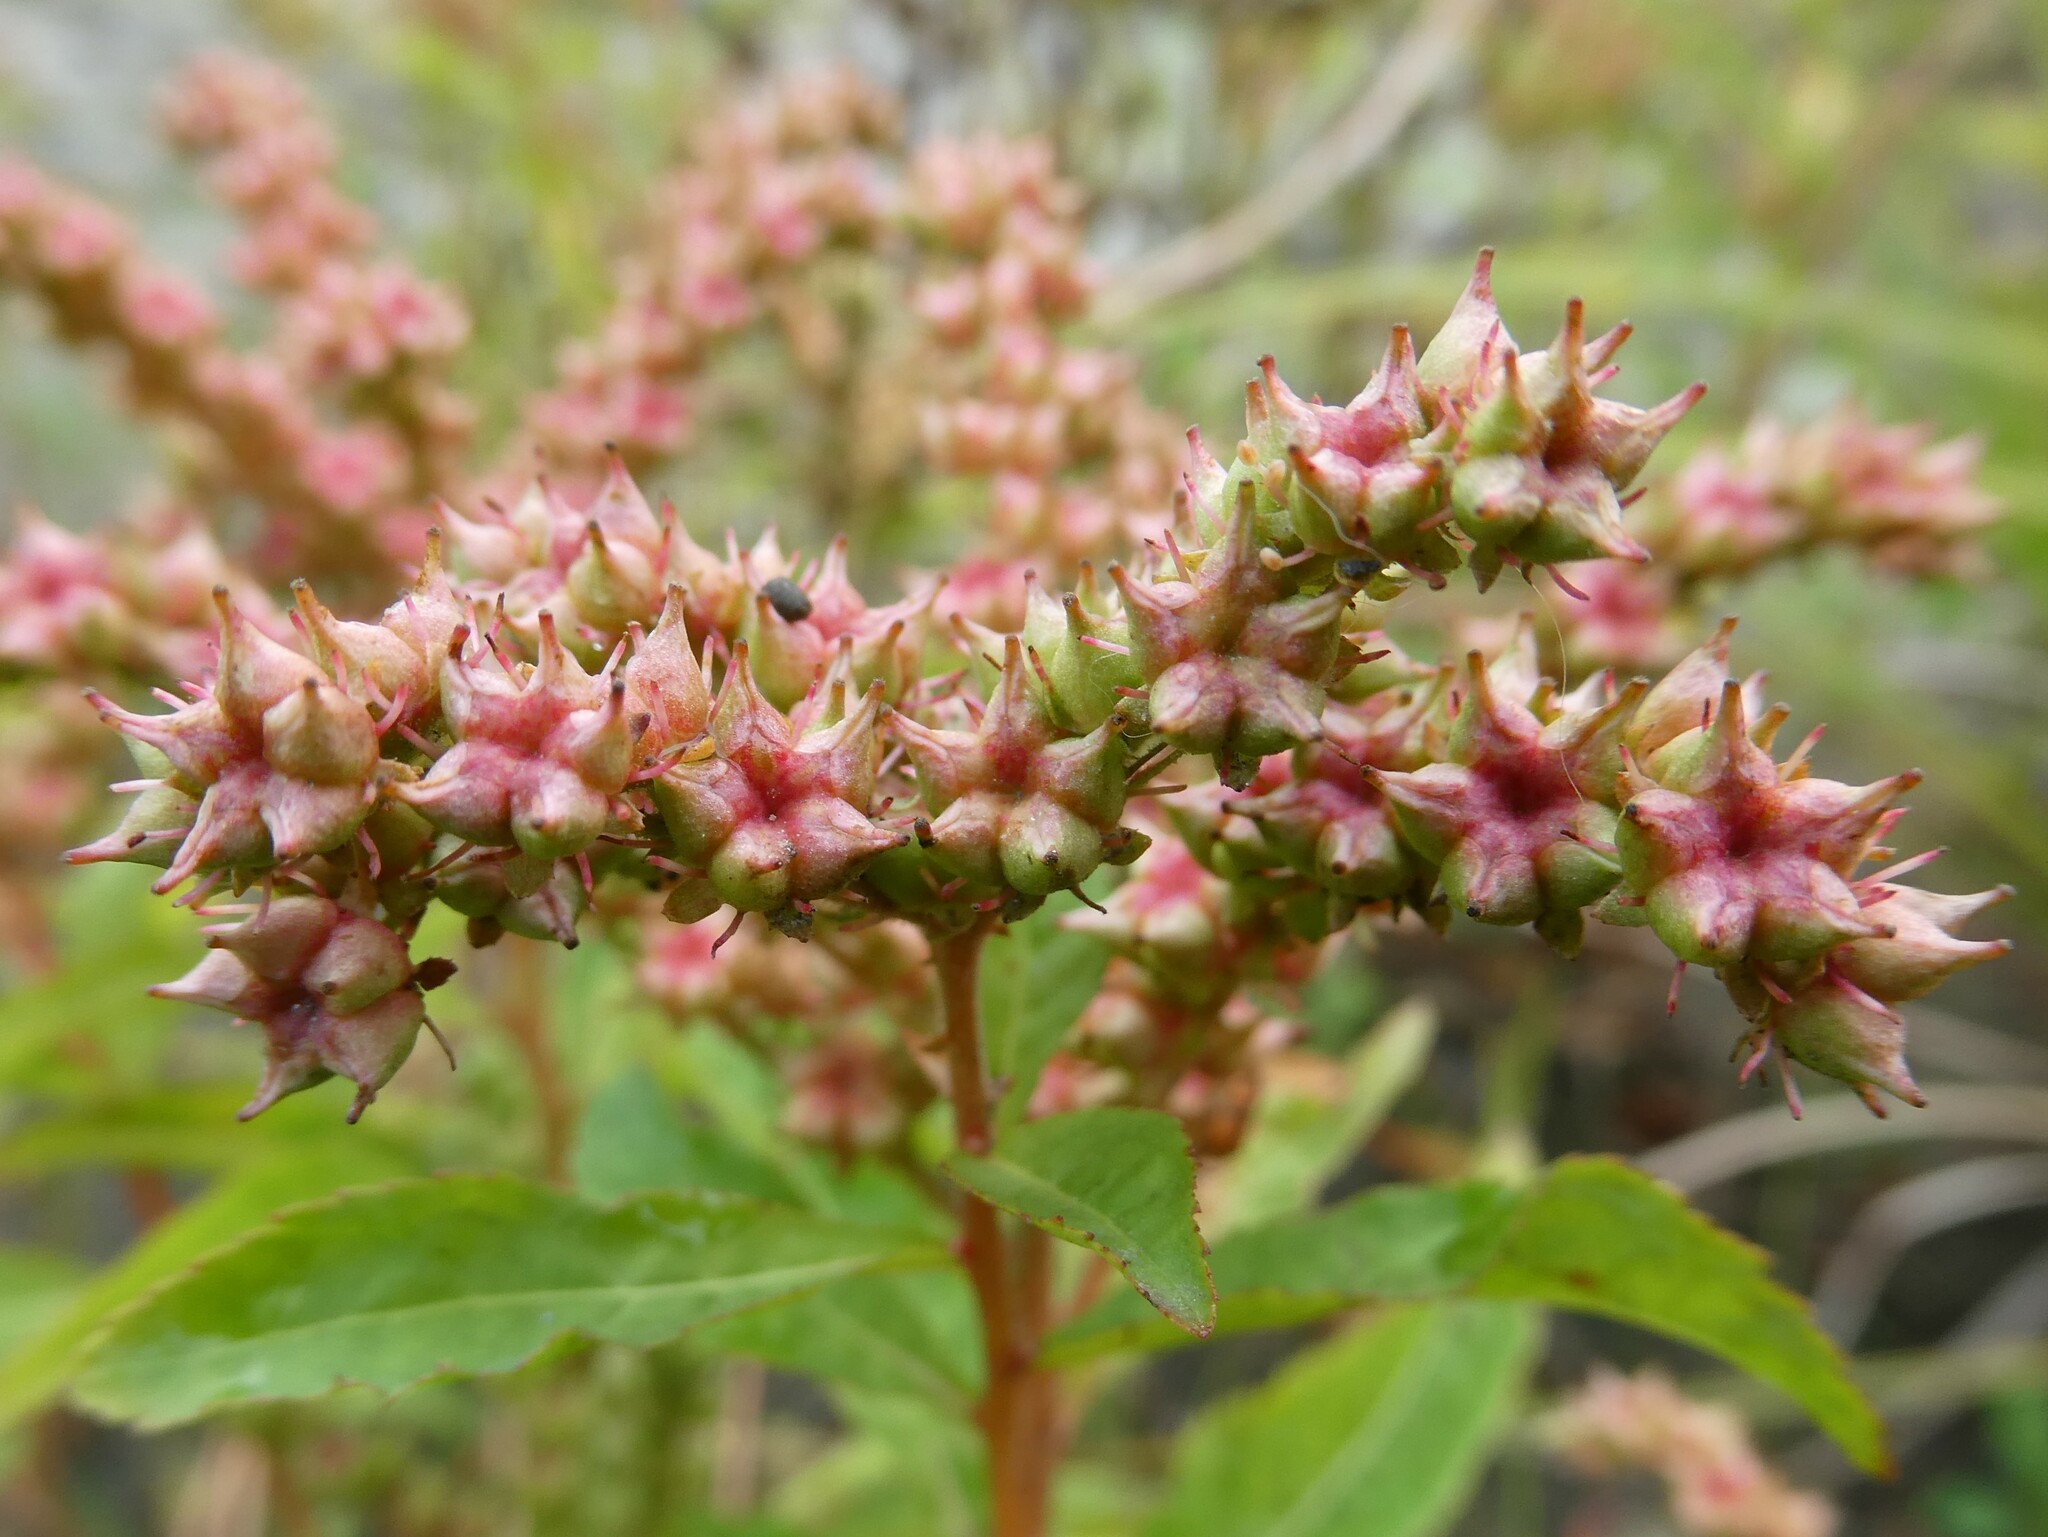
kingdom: Plantae
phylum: Tracheophyta
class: Magnoliopsida
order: Saxifragales
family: Penthoraceae
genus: Penthorum
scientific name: Penthorum sedoides
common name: Ditch stonecrop
